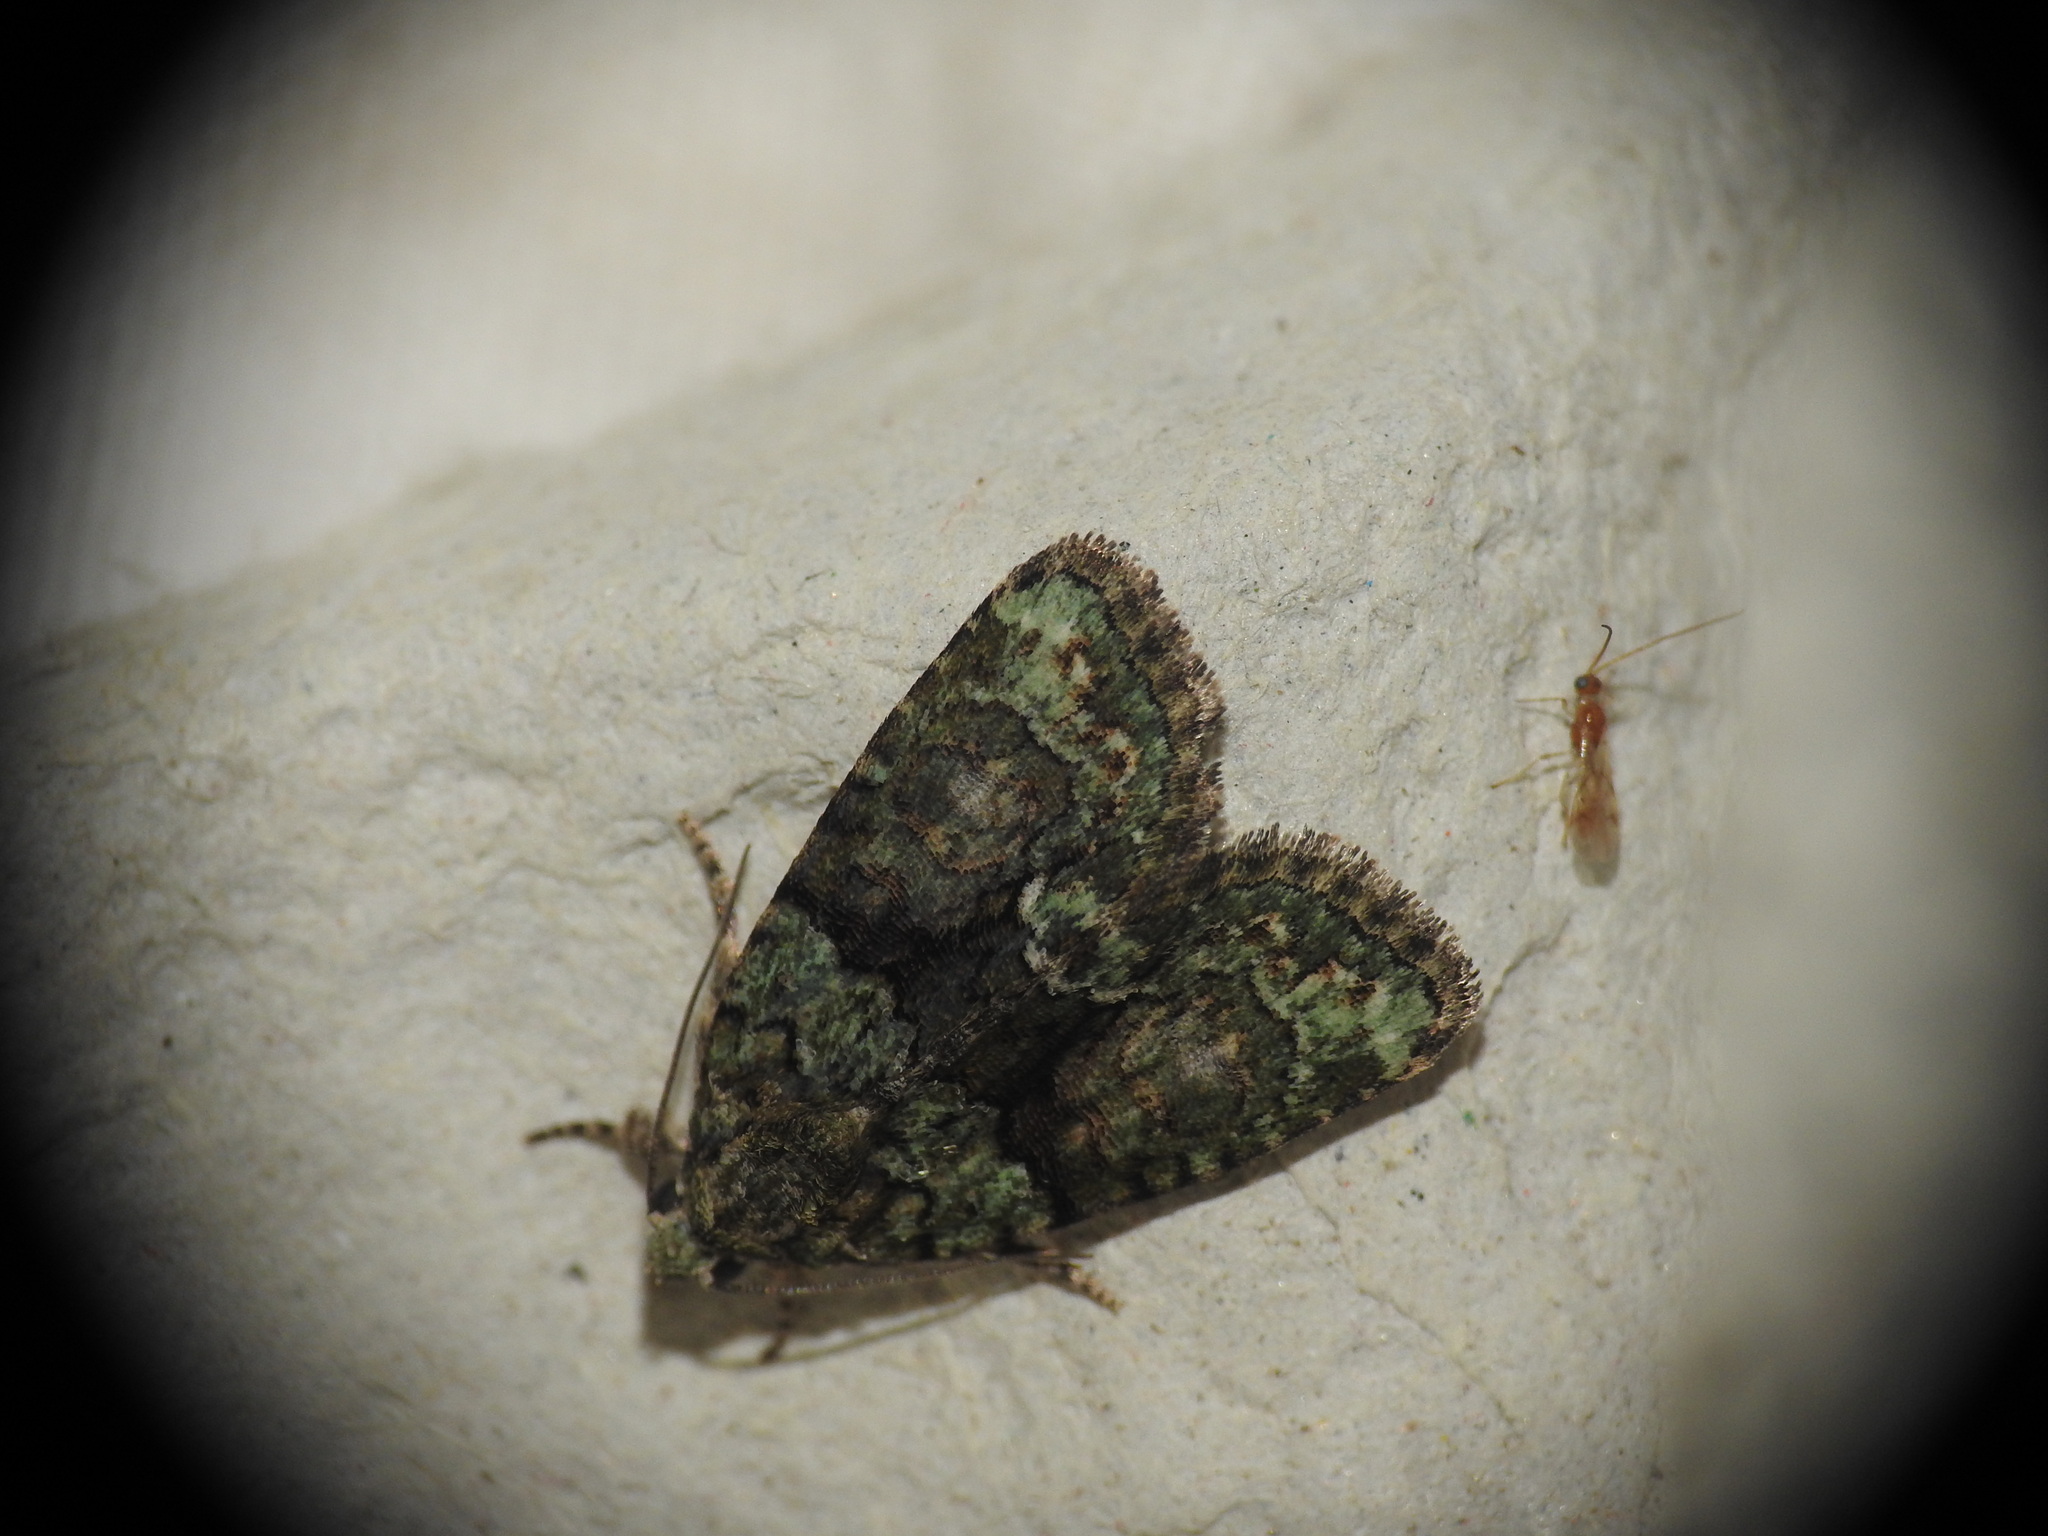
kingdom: Animalia
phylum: Arthropoda
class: Insecta
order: Lepidoptera
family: Noctuidae
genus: Cryphia
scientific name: Cryphia algae
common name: Tree-lichen beauty
